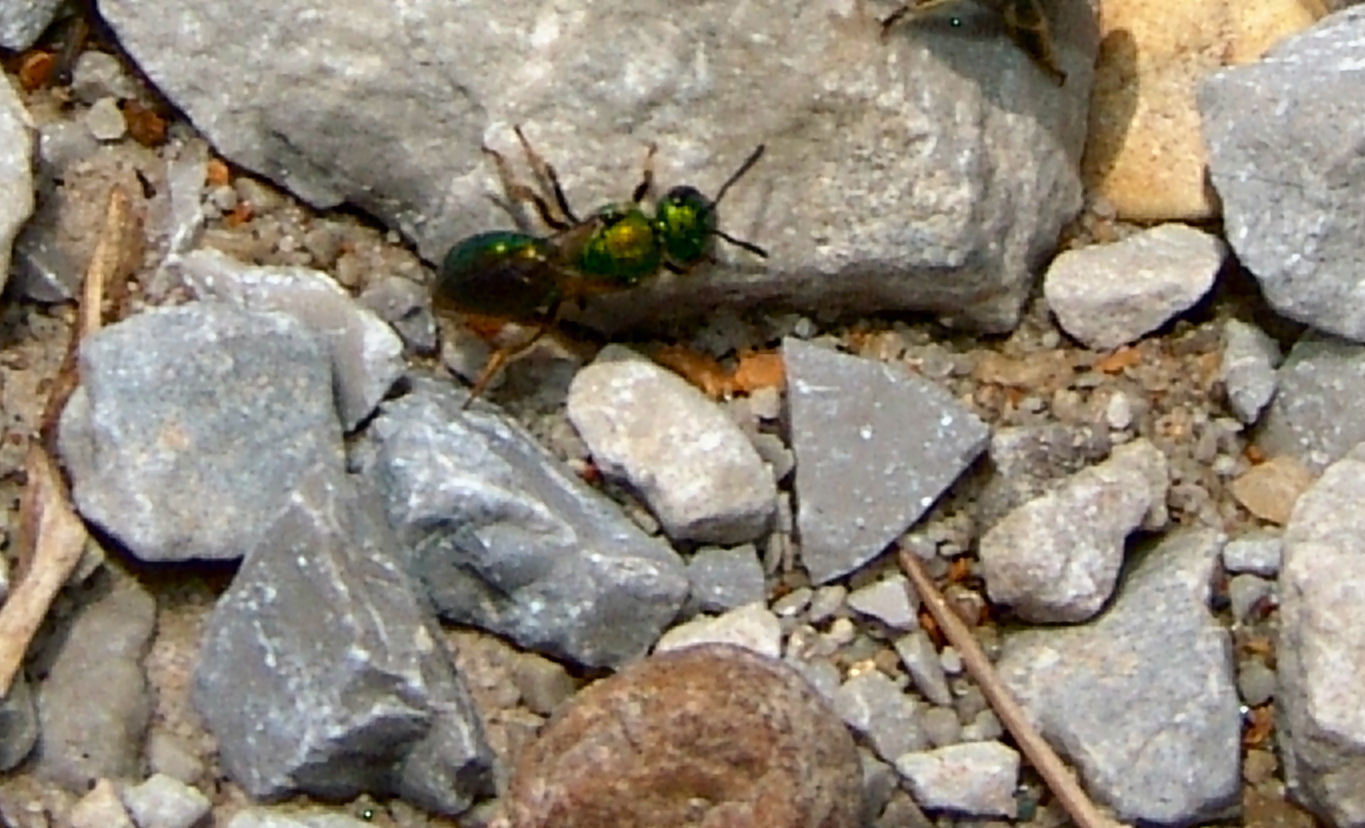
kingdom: Animalia
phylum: Arthropoda
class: Insecta
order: Hymenoptera
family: Halictidae
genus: Augochlora
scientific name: Augochlora pura
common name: Pure green sweat bee
